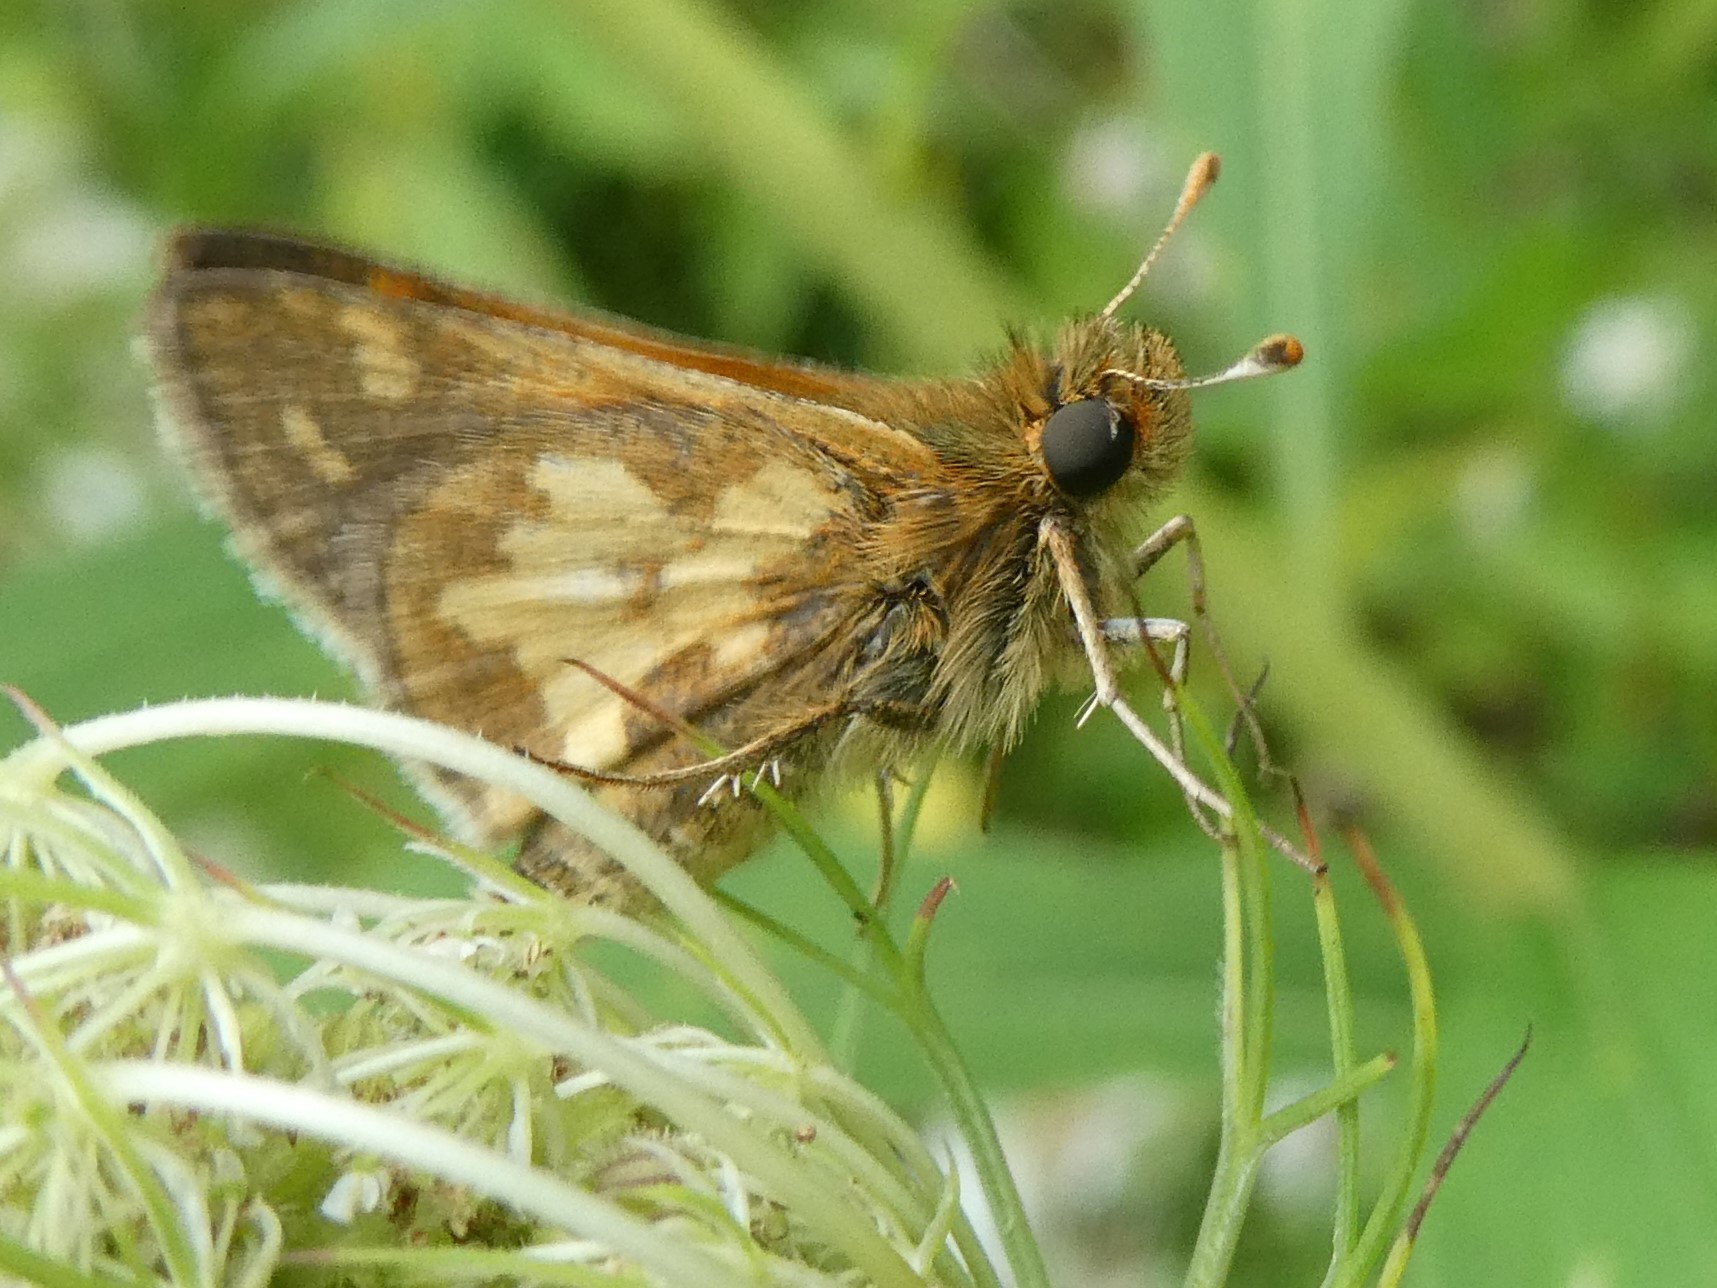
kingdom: Animalia
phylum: Arthropoda
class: Insecta
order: Lepidoptera
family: Hesperiidae
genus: Polites
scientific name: Polites coras
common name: Peck's skipper
